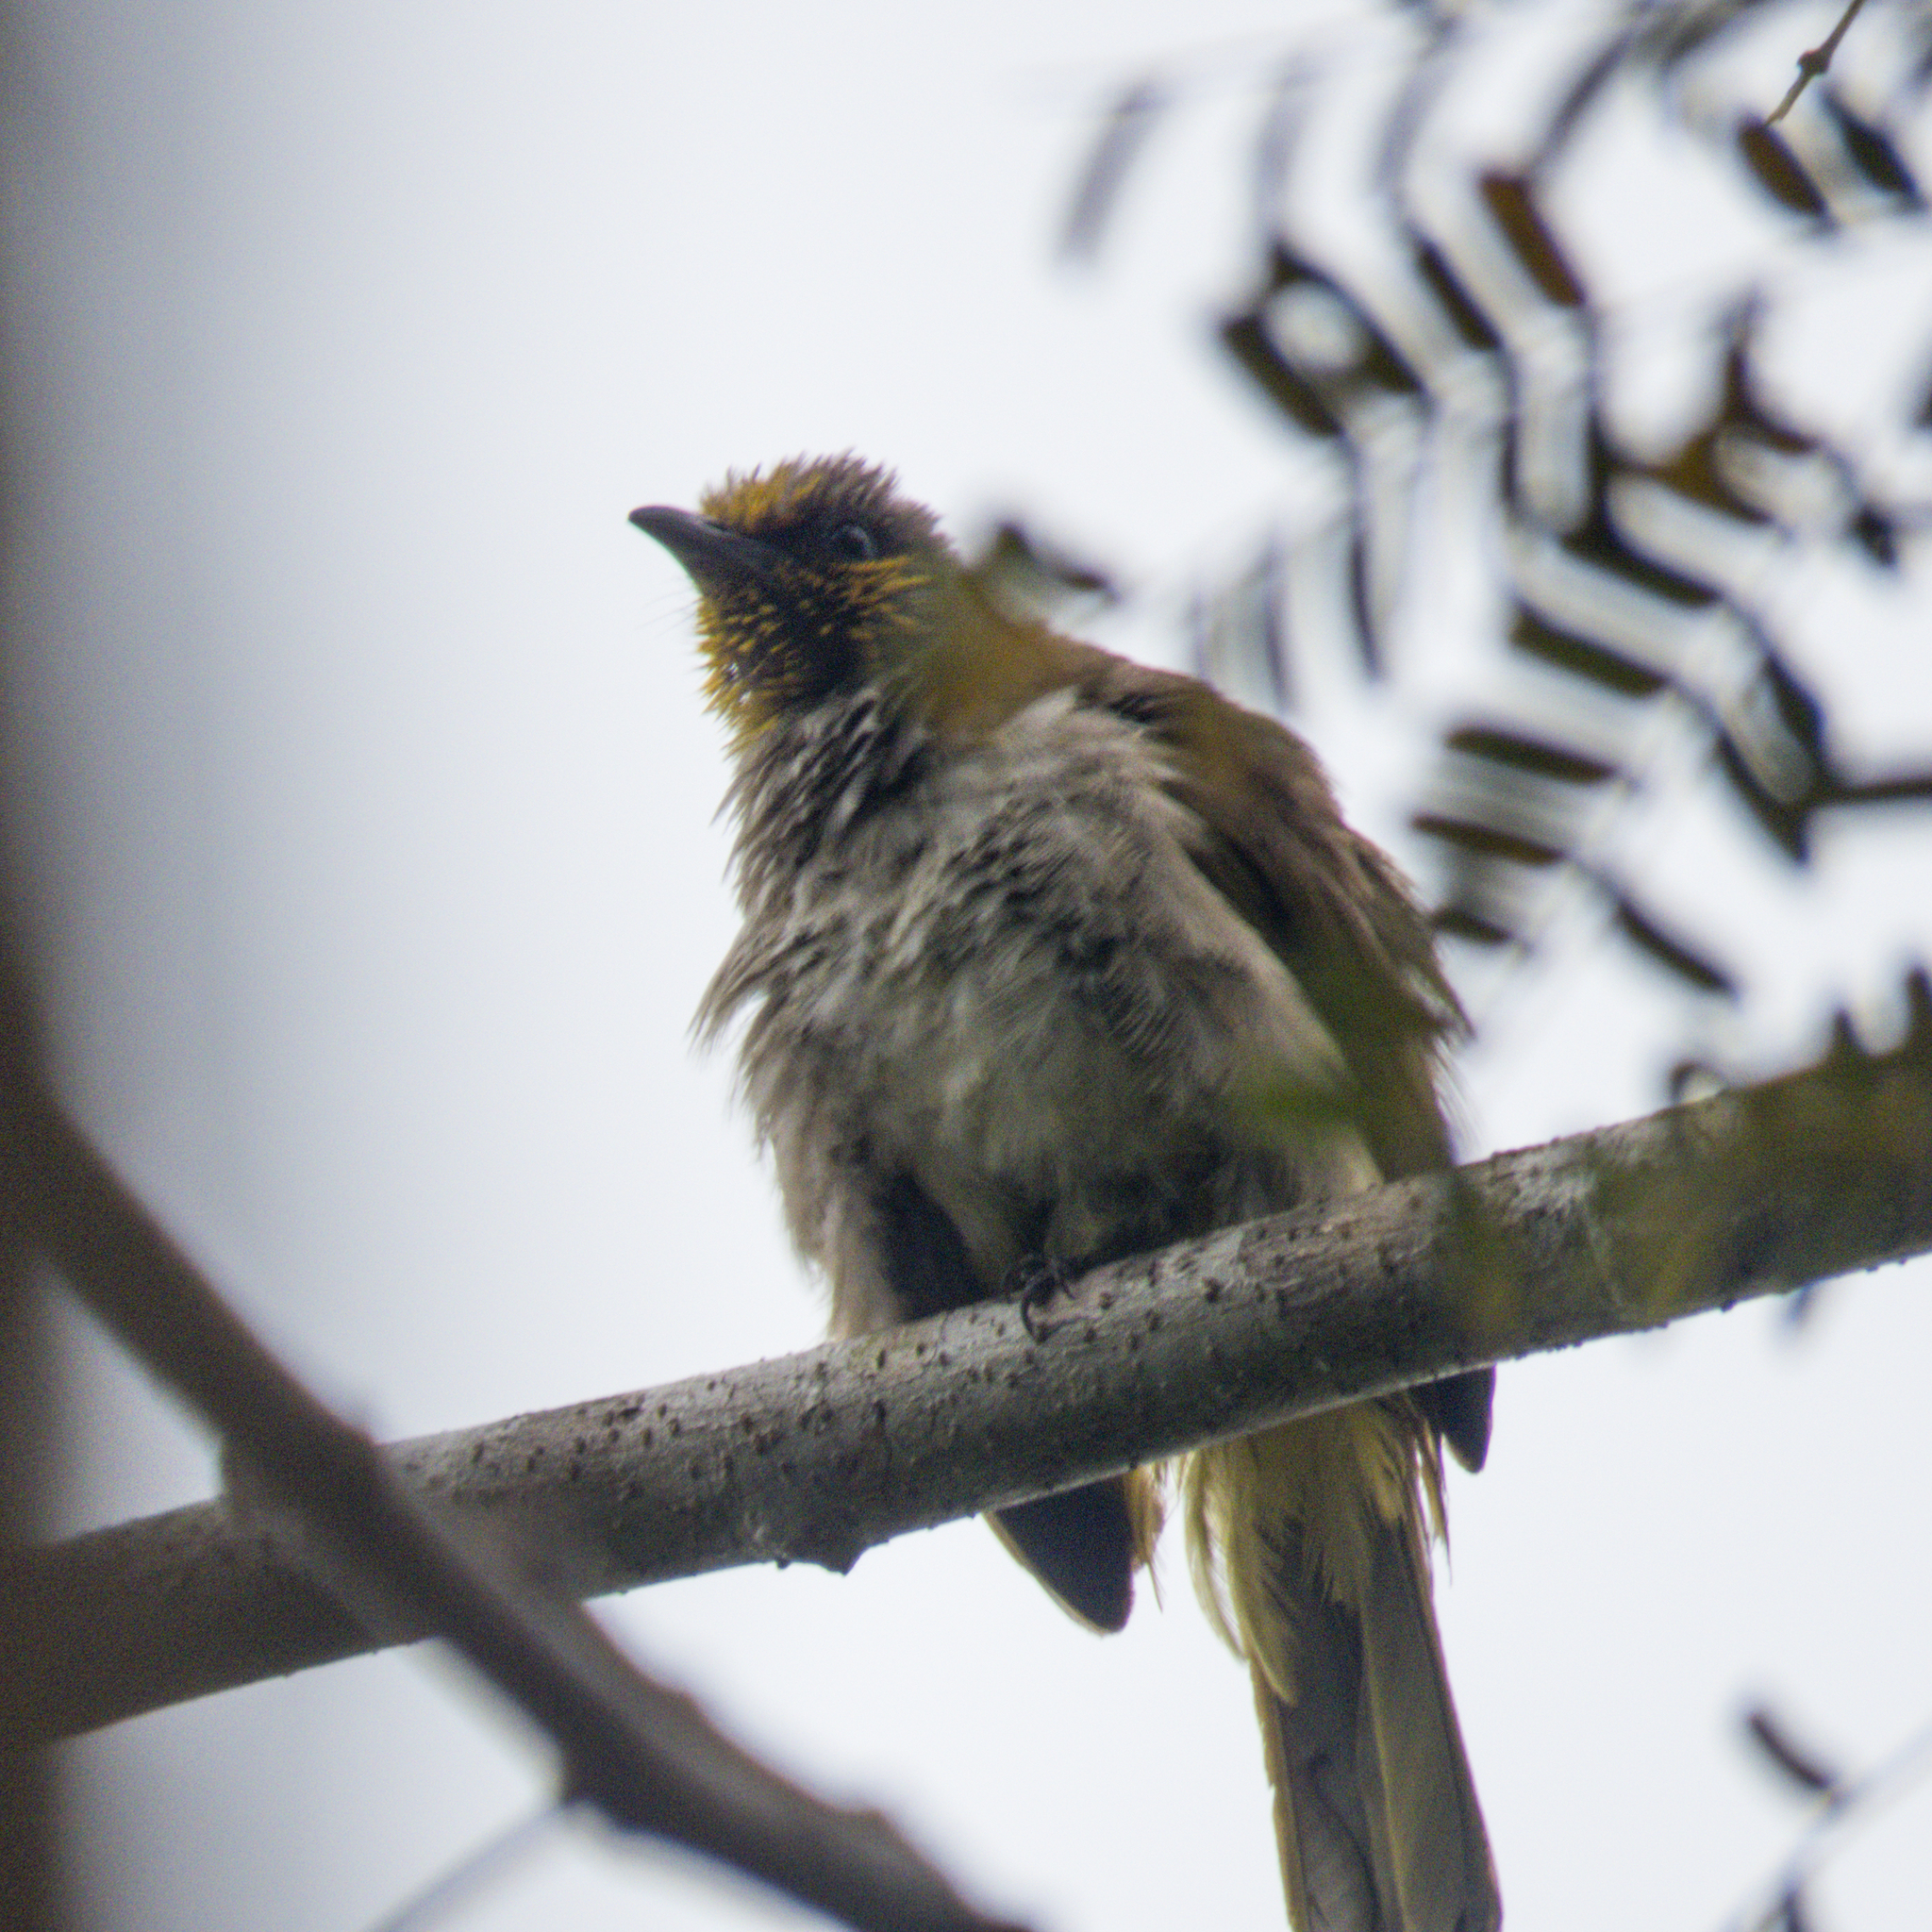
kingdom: Animalia
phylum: Chordata
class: Aves
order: Passeriformes
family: Pycnonotidae
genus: Pycnonotus
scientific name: Pycnonotus finlaysoni
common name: Stripe-throated bulbul
